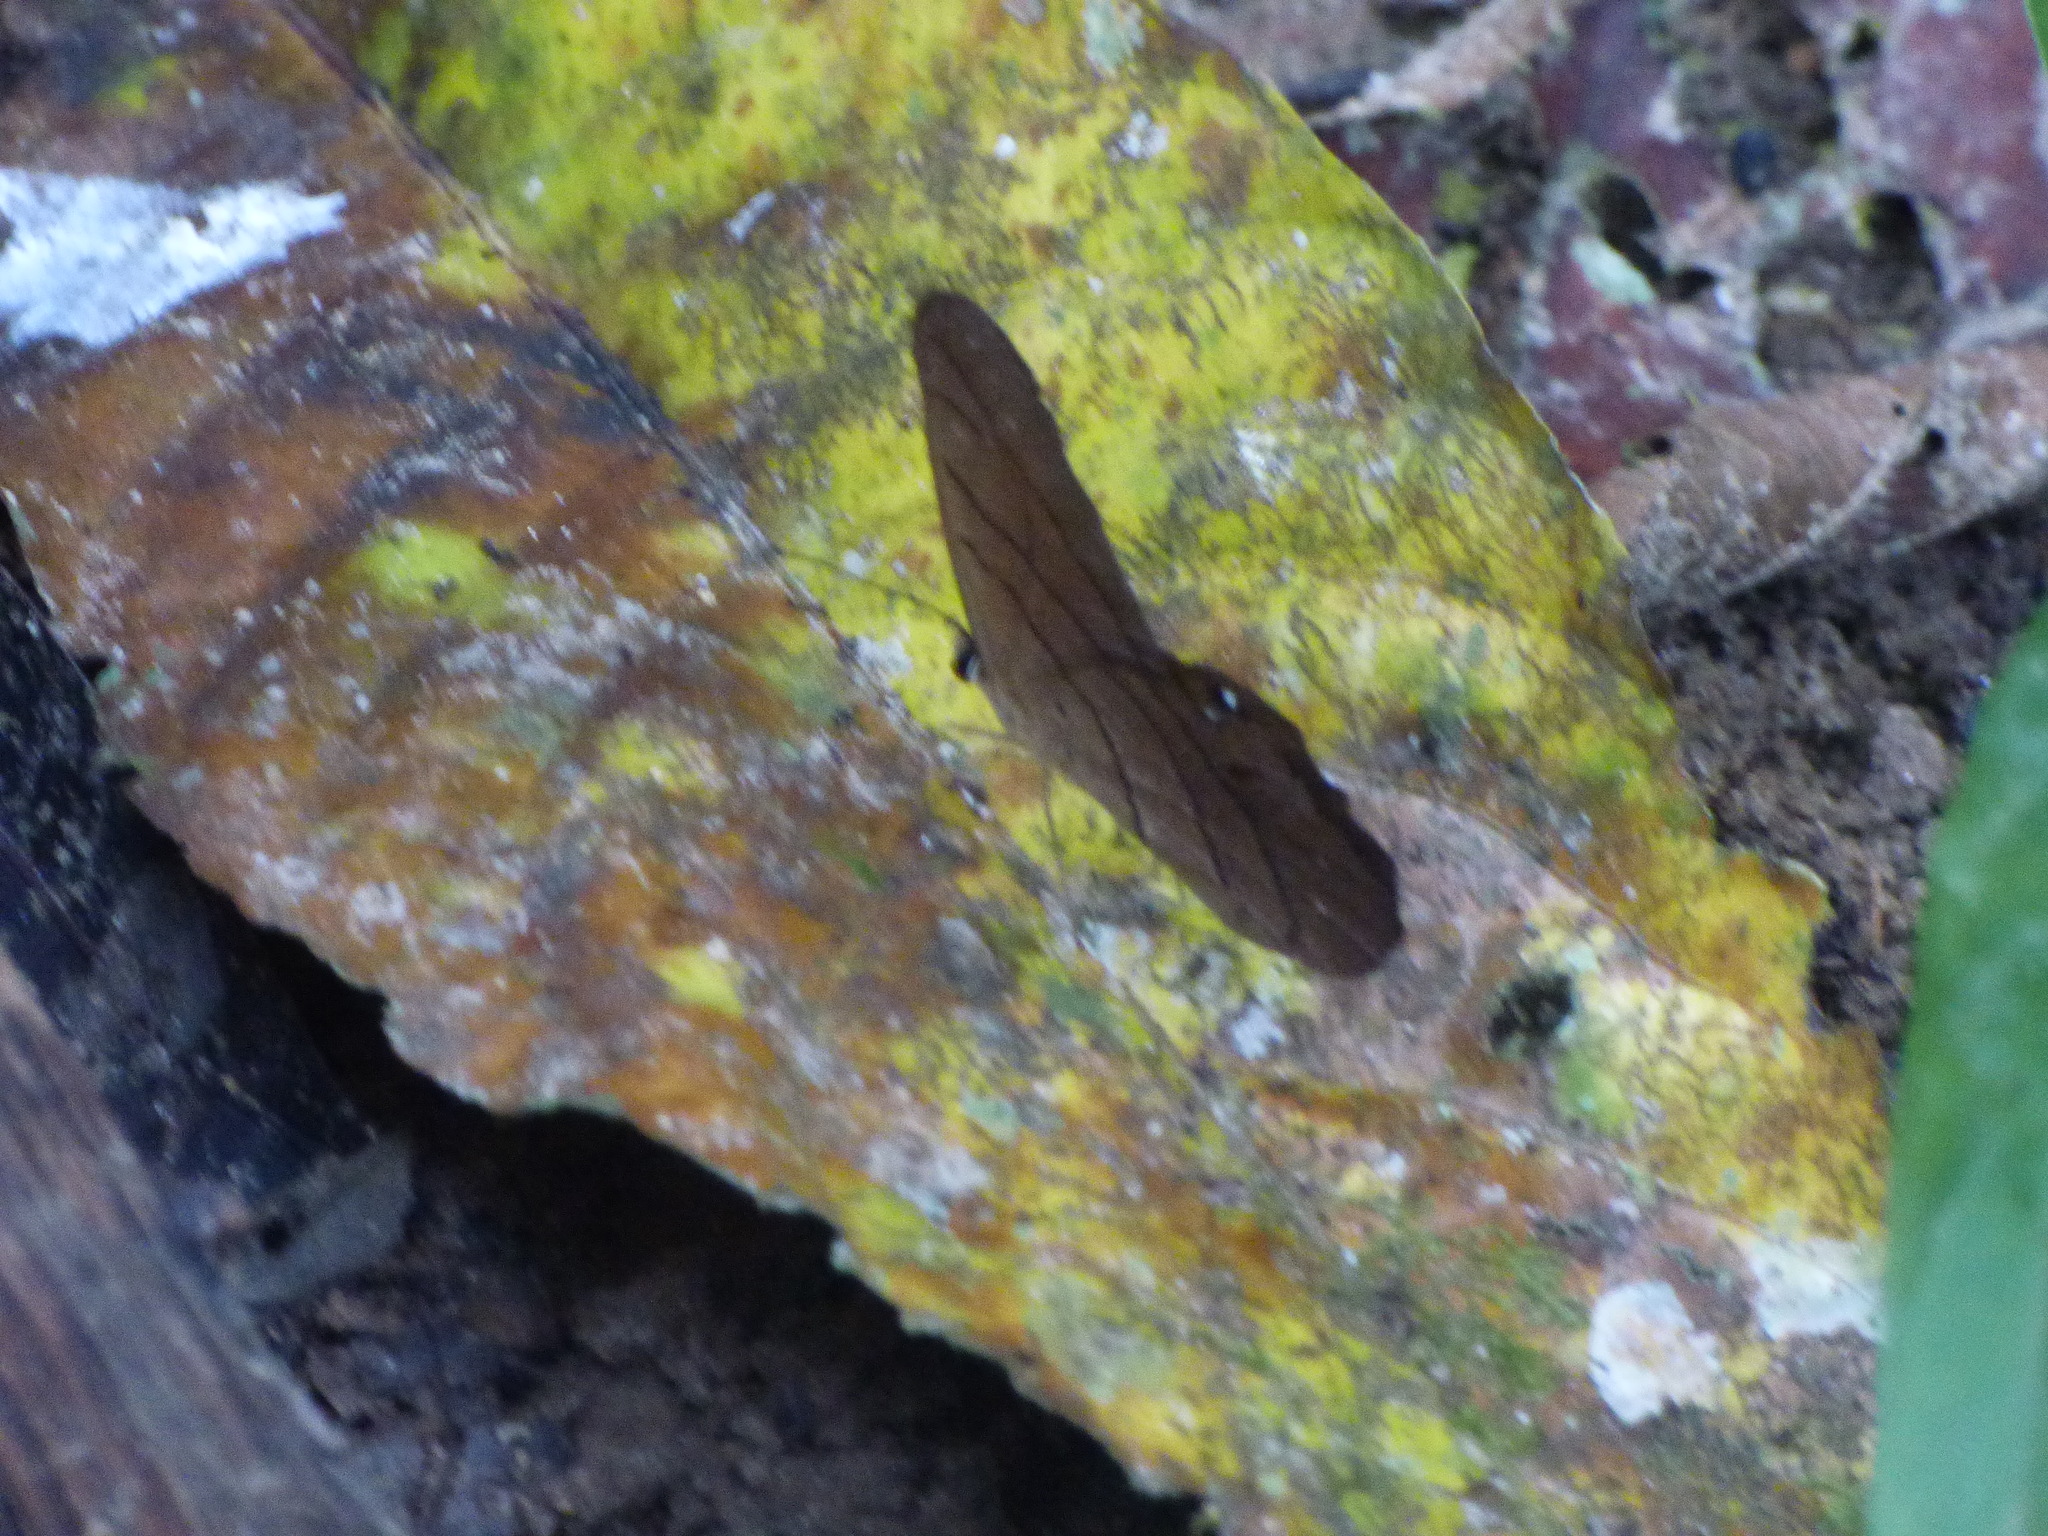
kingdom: Animalia
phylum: Arthropoda
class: Insecta
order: Lepidoptera
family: Nymphalidae
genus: Pierella
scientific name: Pierella luna
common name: Moon satyr
